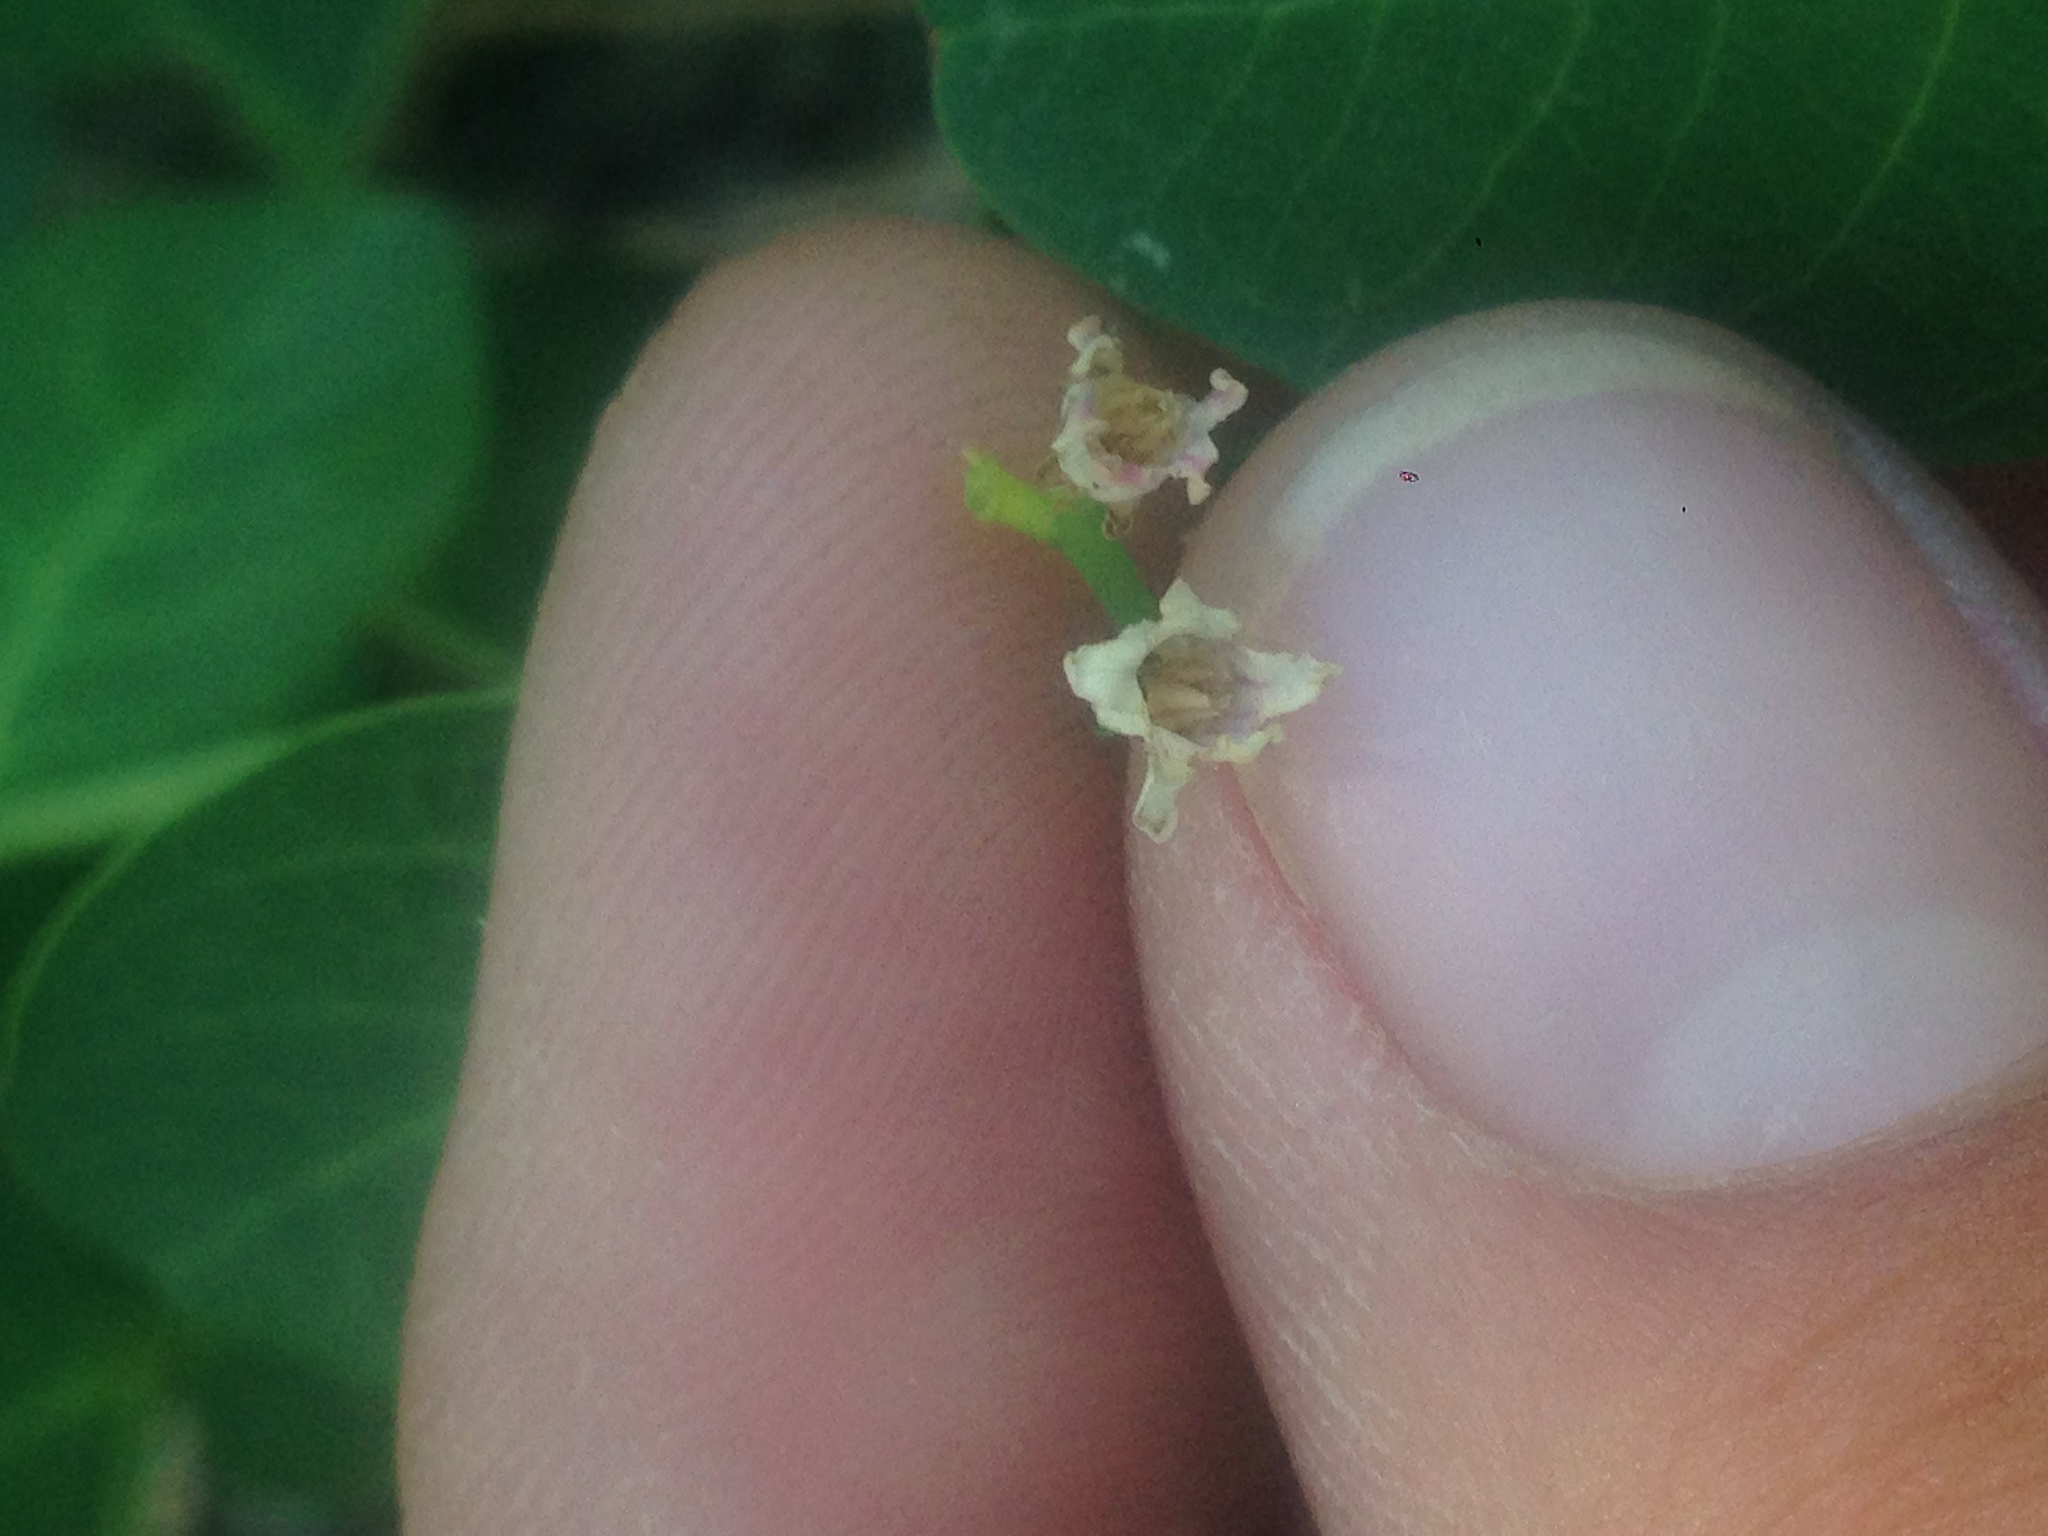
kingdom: Plantae
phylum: Tracheophyta
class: Magnoliopsida
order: Gentianales
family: Apocynaceae
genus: Apocynum
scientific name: Apocynum androsaemifolium
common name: Spreading dogbane
